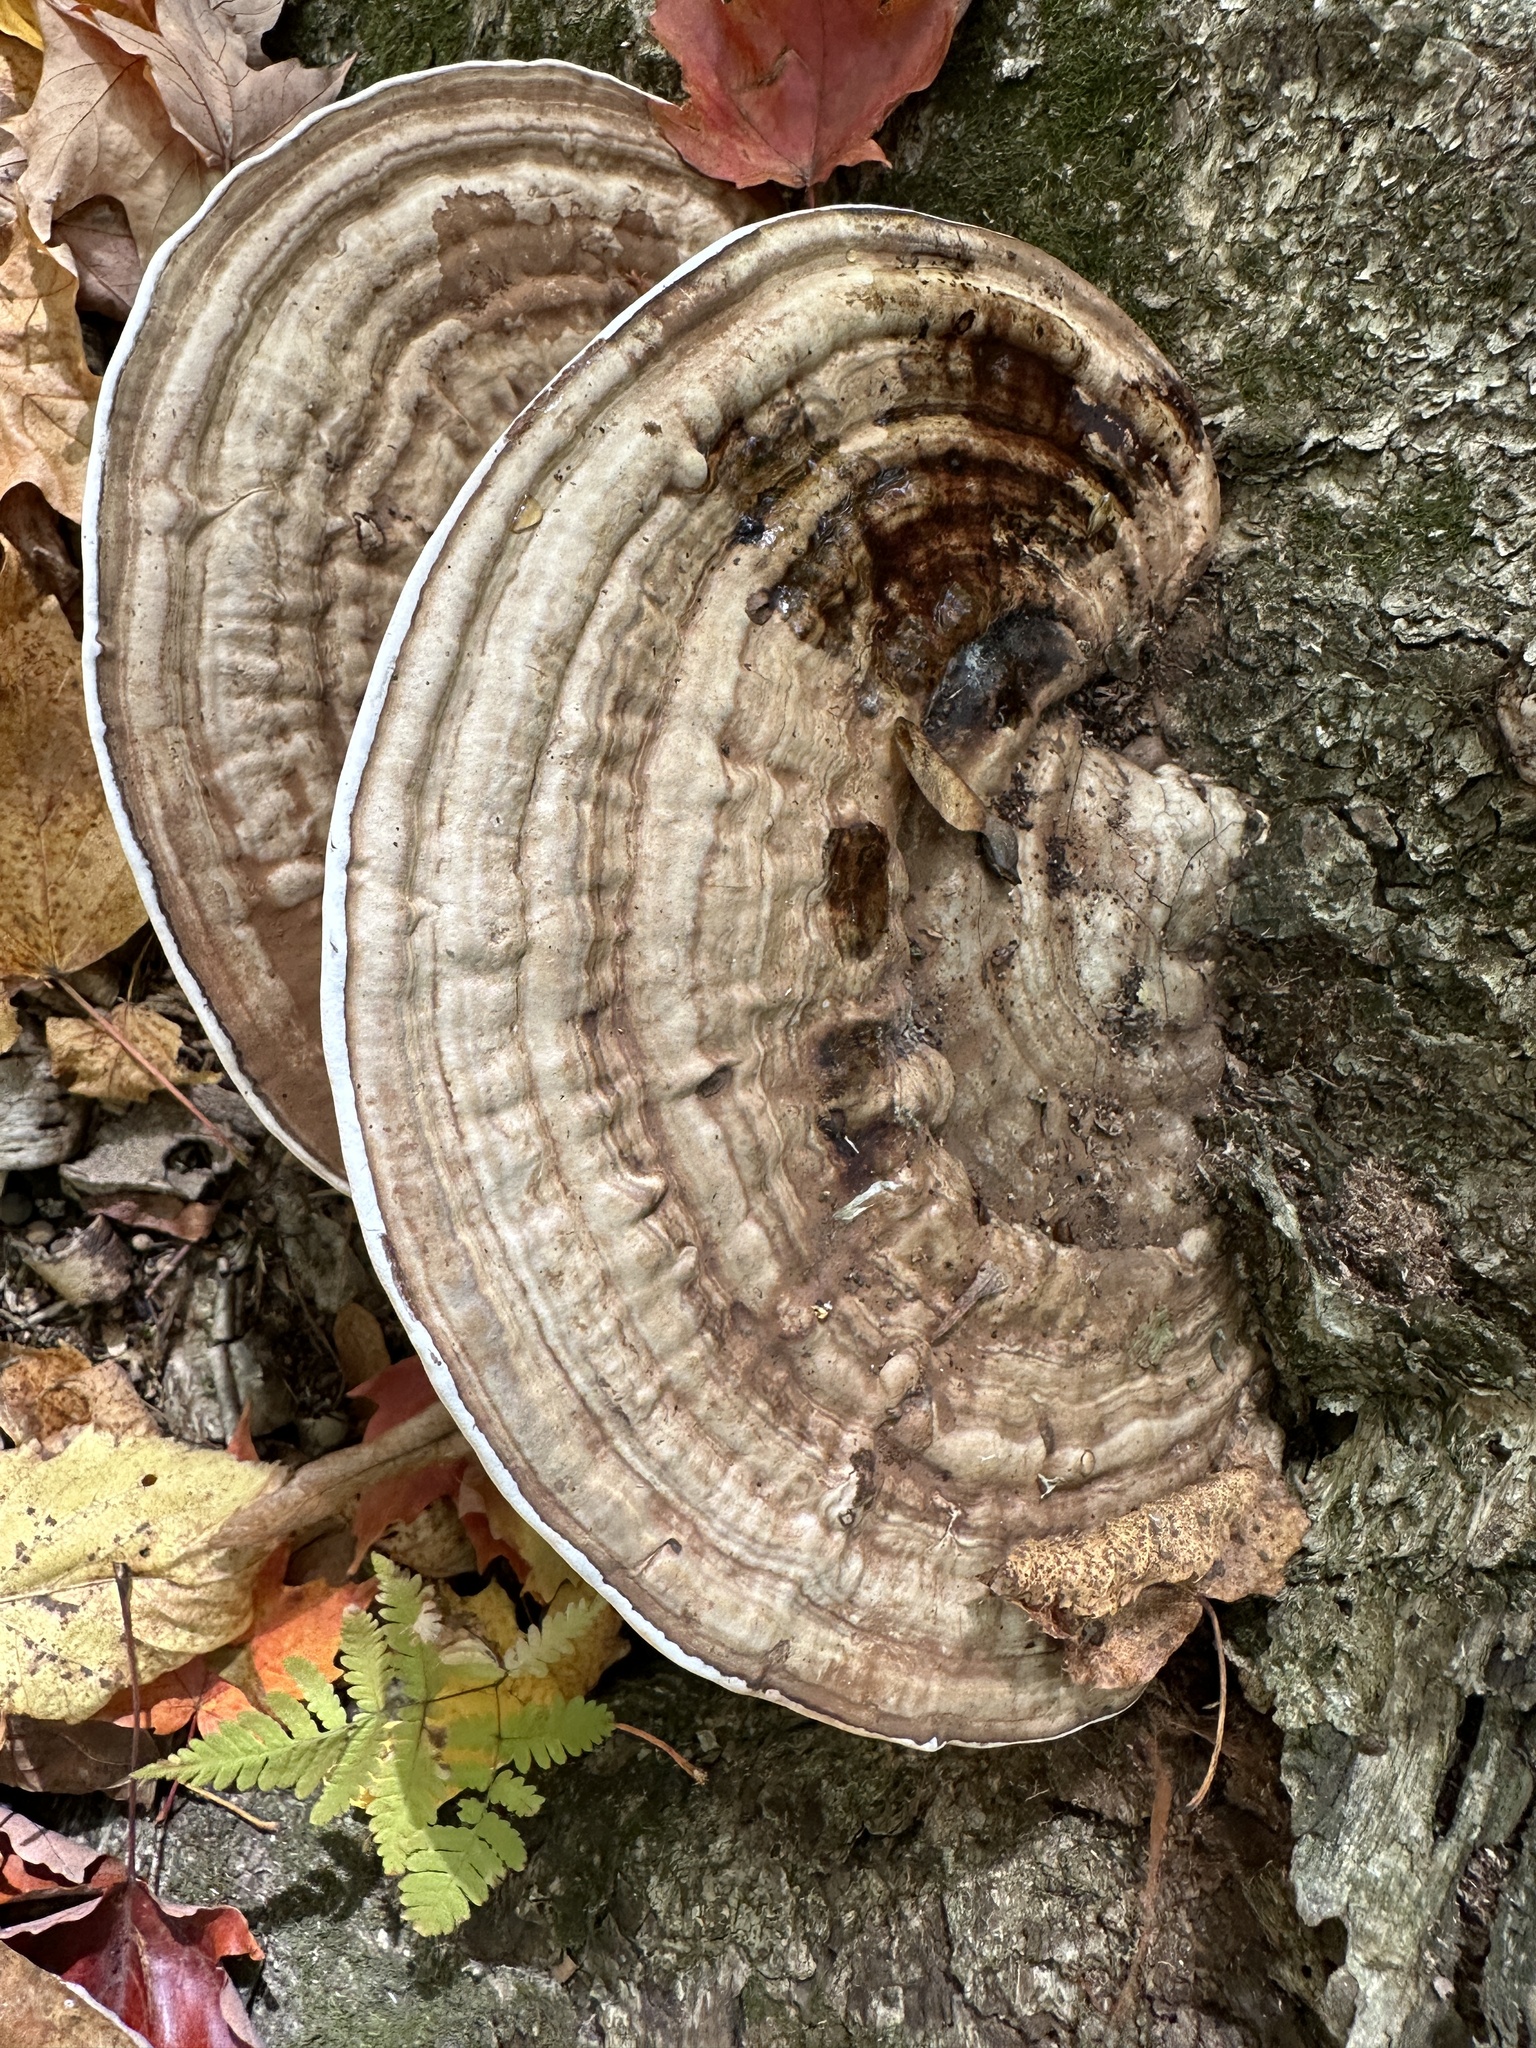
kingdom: Fungi
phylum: Basidiomycota
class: Agaricomycetes
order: Polyporales
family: Polyporaceae
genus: Ganoderma
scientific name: Ganoderma applanatum
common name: Artist's bracket
